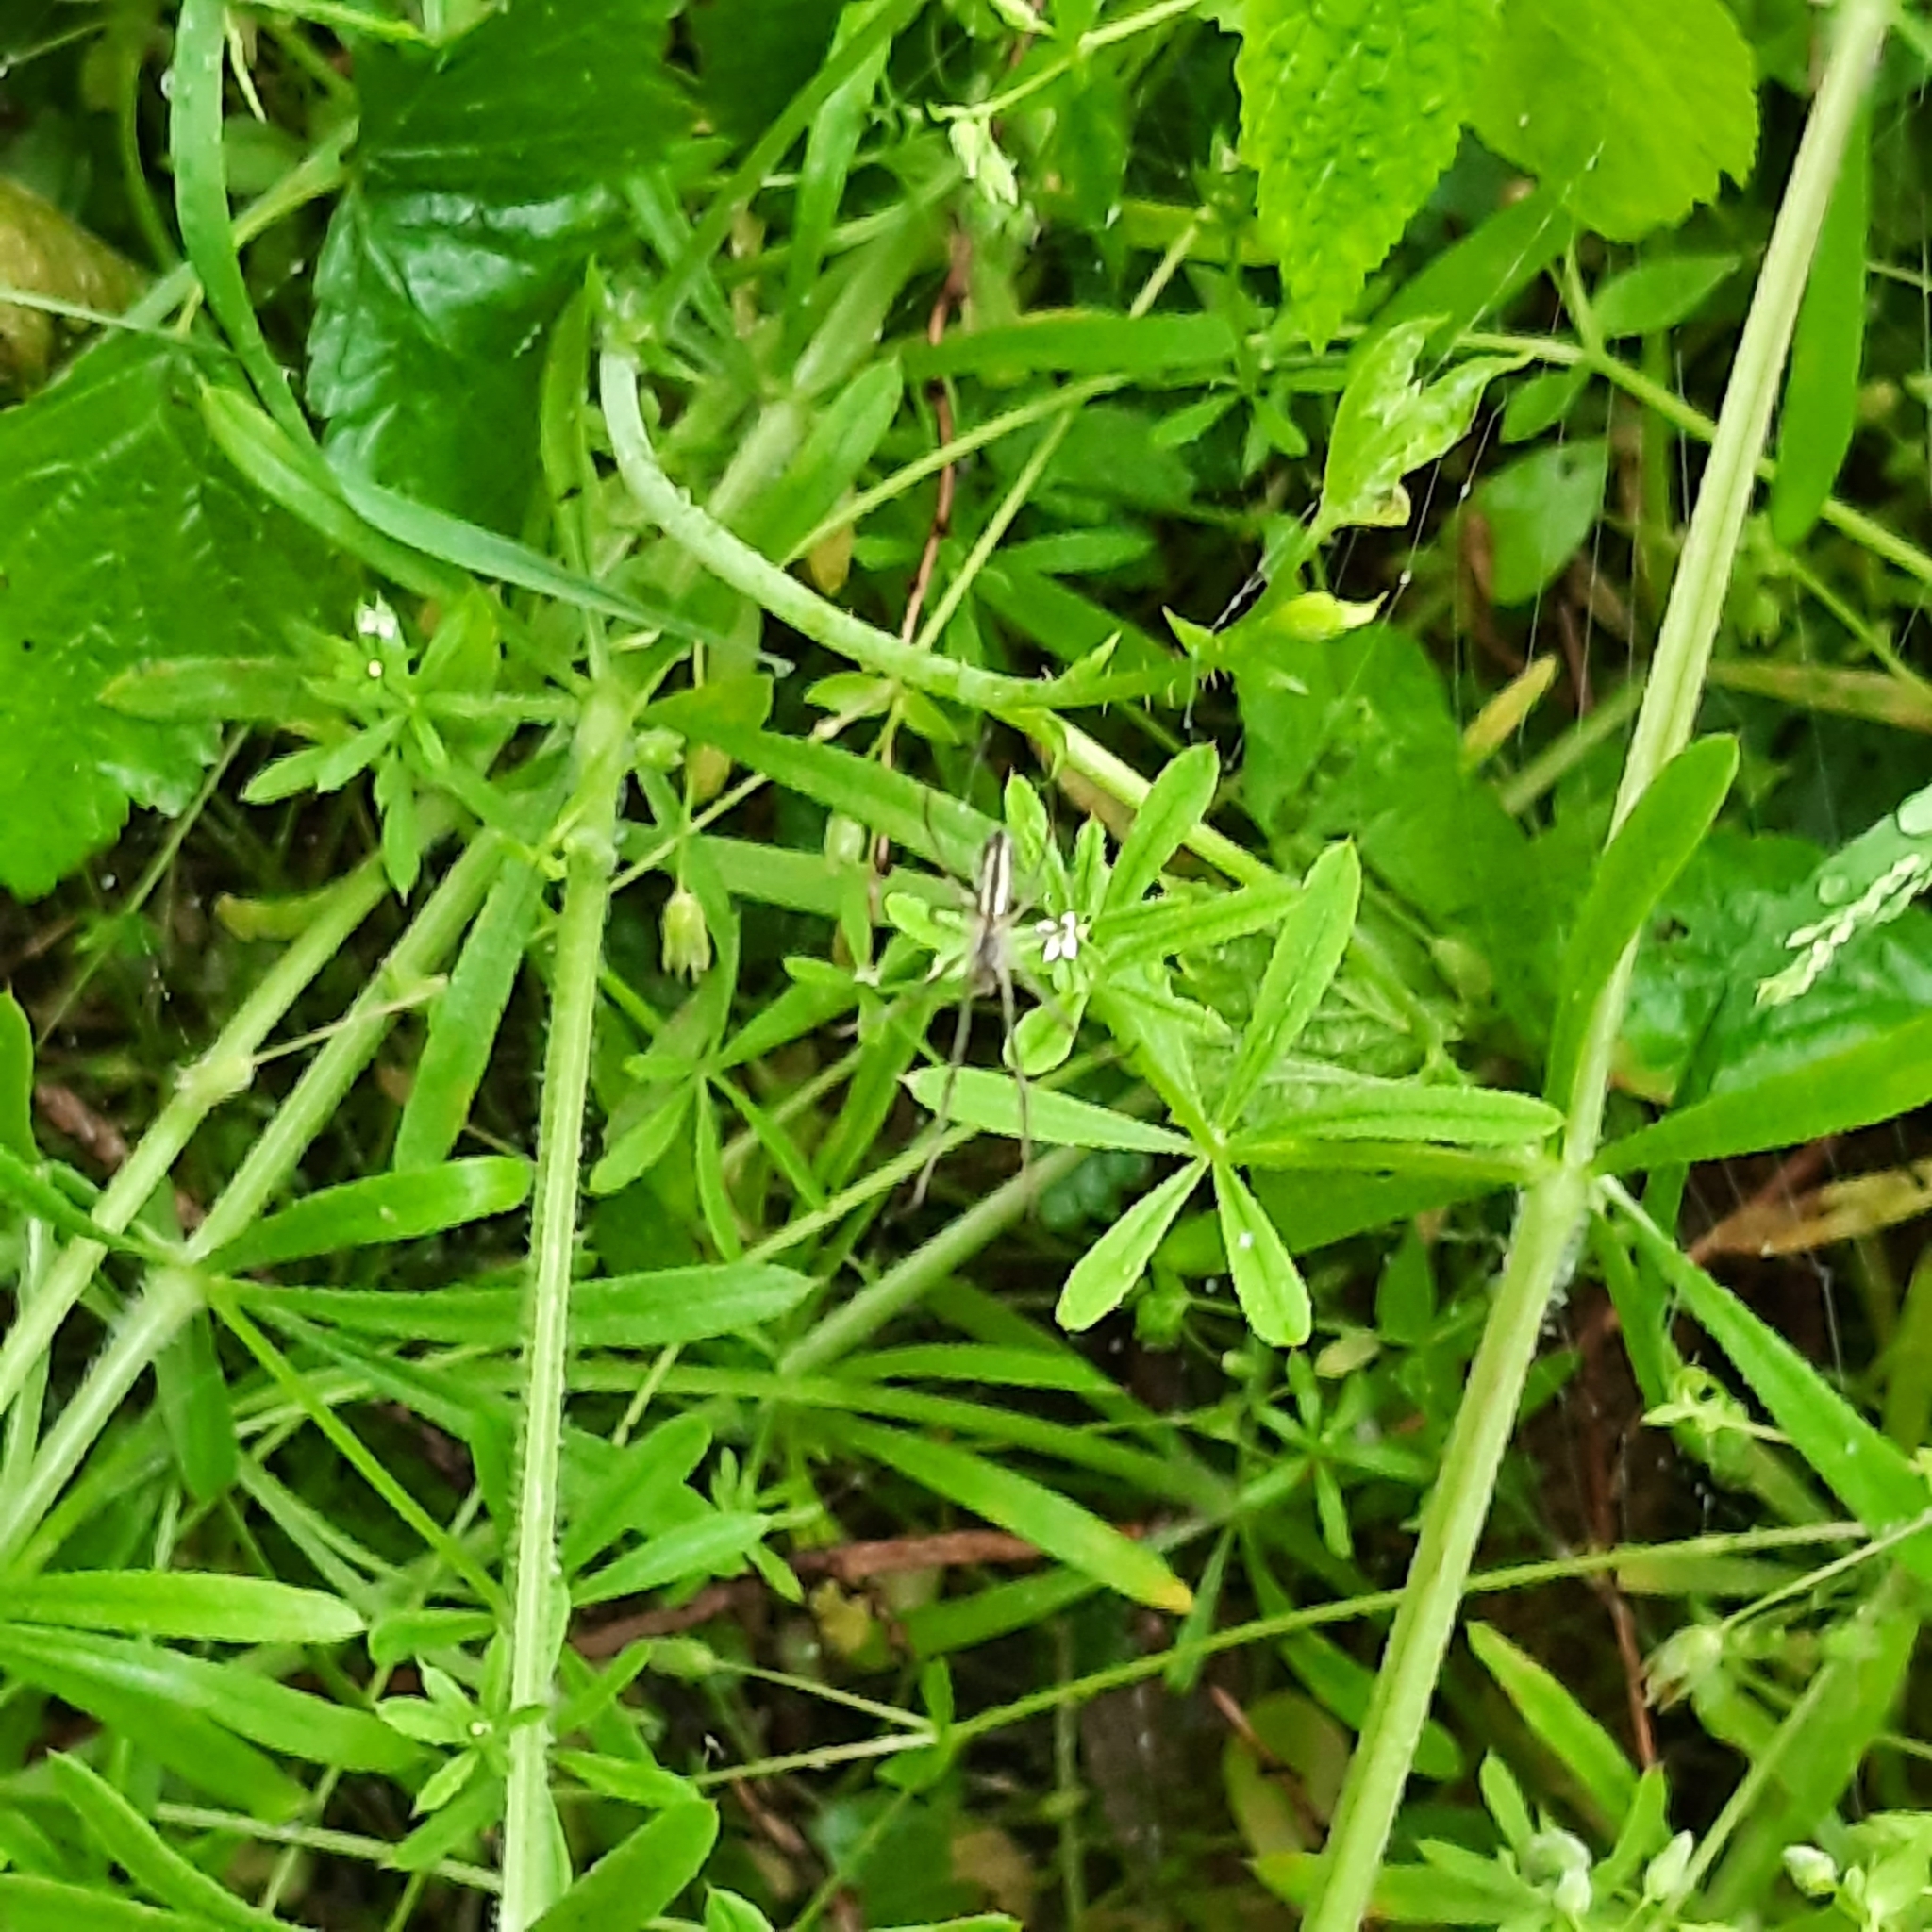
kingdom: Plantae
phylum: Tracheophyta
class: Magnoliopsida
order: Gentianales
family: Rubiaceae
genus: Galium
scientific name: Galium aparine
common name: Cleavers
